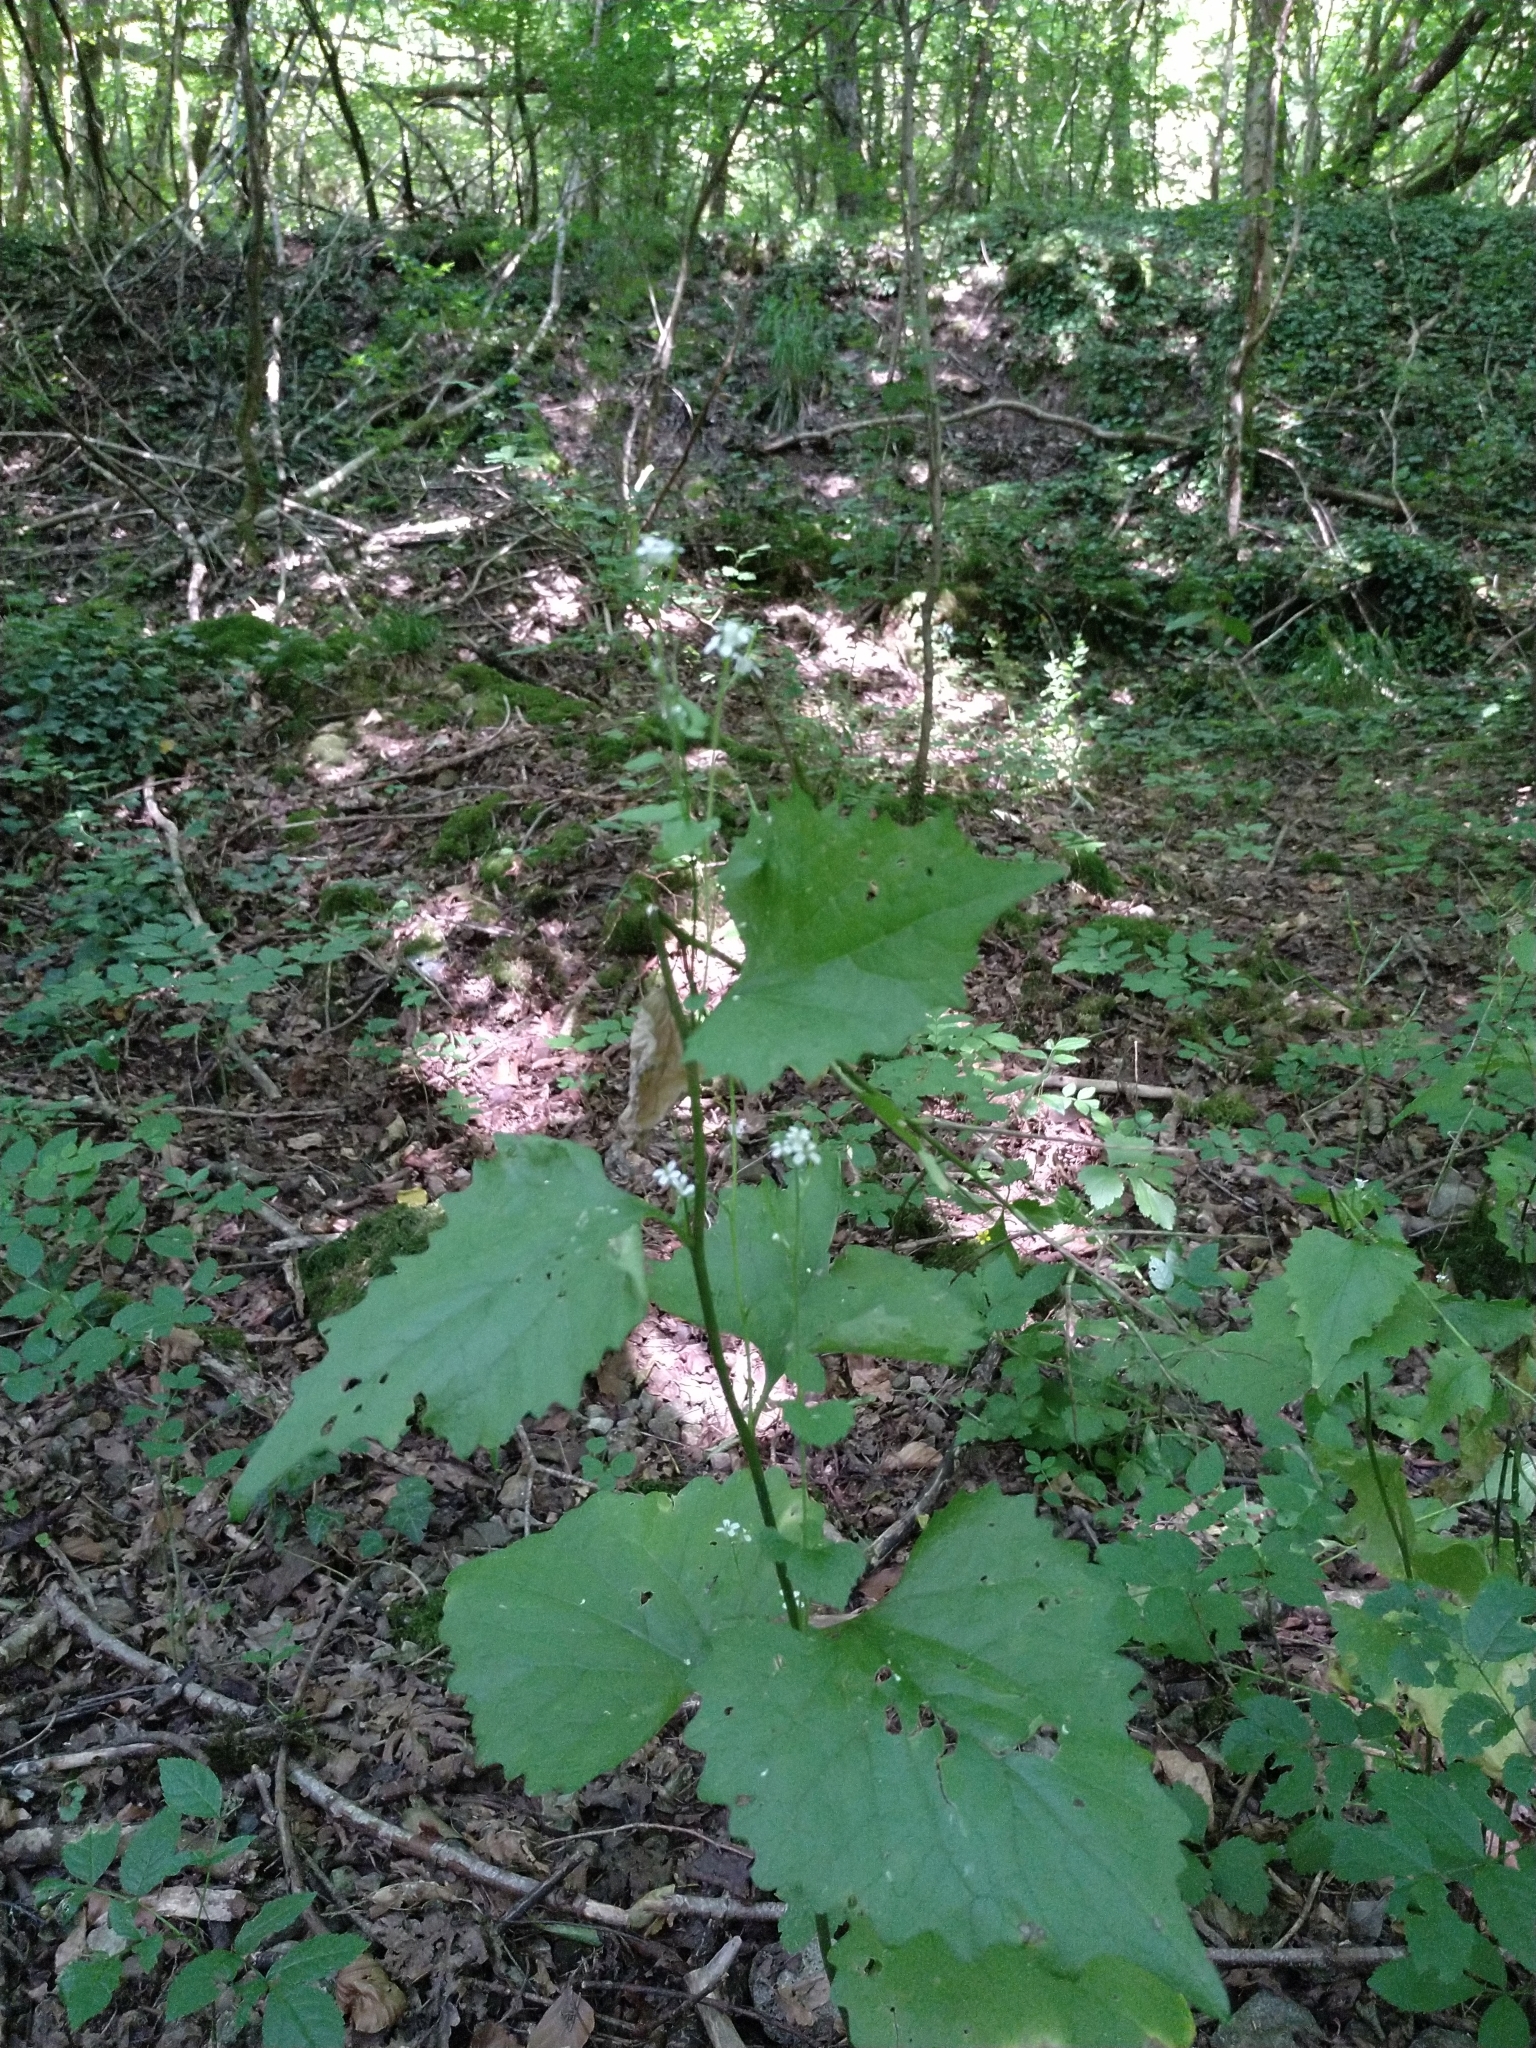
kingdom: Plantae
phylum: Tracheophyta
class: Magnoliopsida
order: Brassicales
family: Brassicaceae
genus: Alliaria
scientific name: Alliaria petiolata
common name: Garlic mustard
